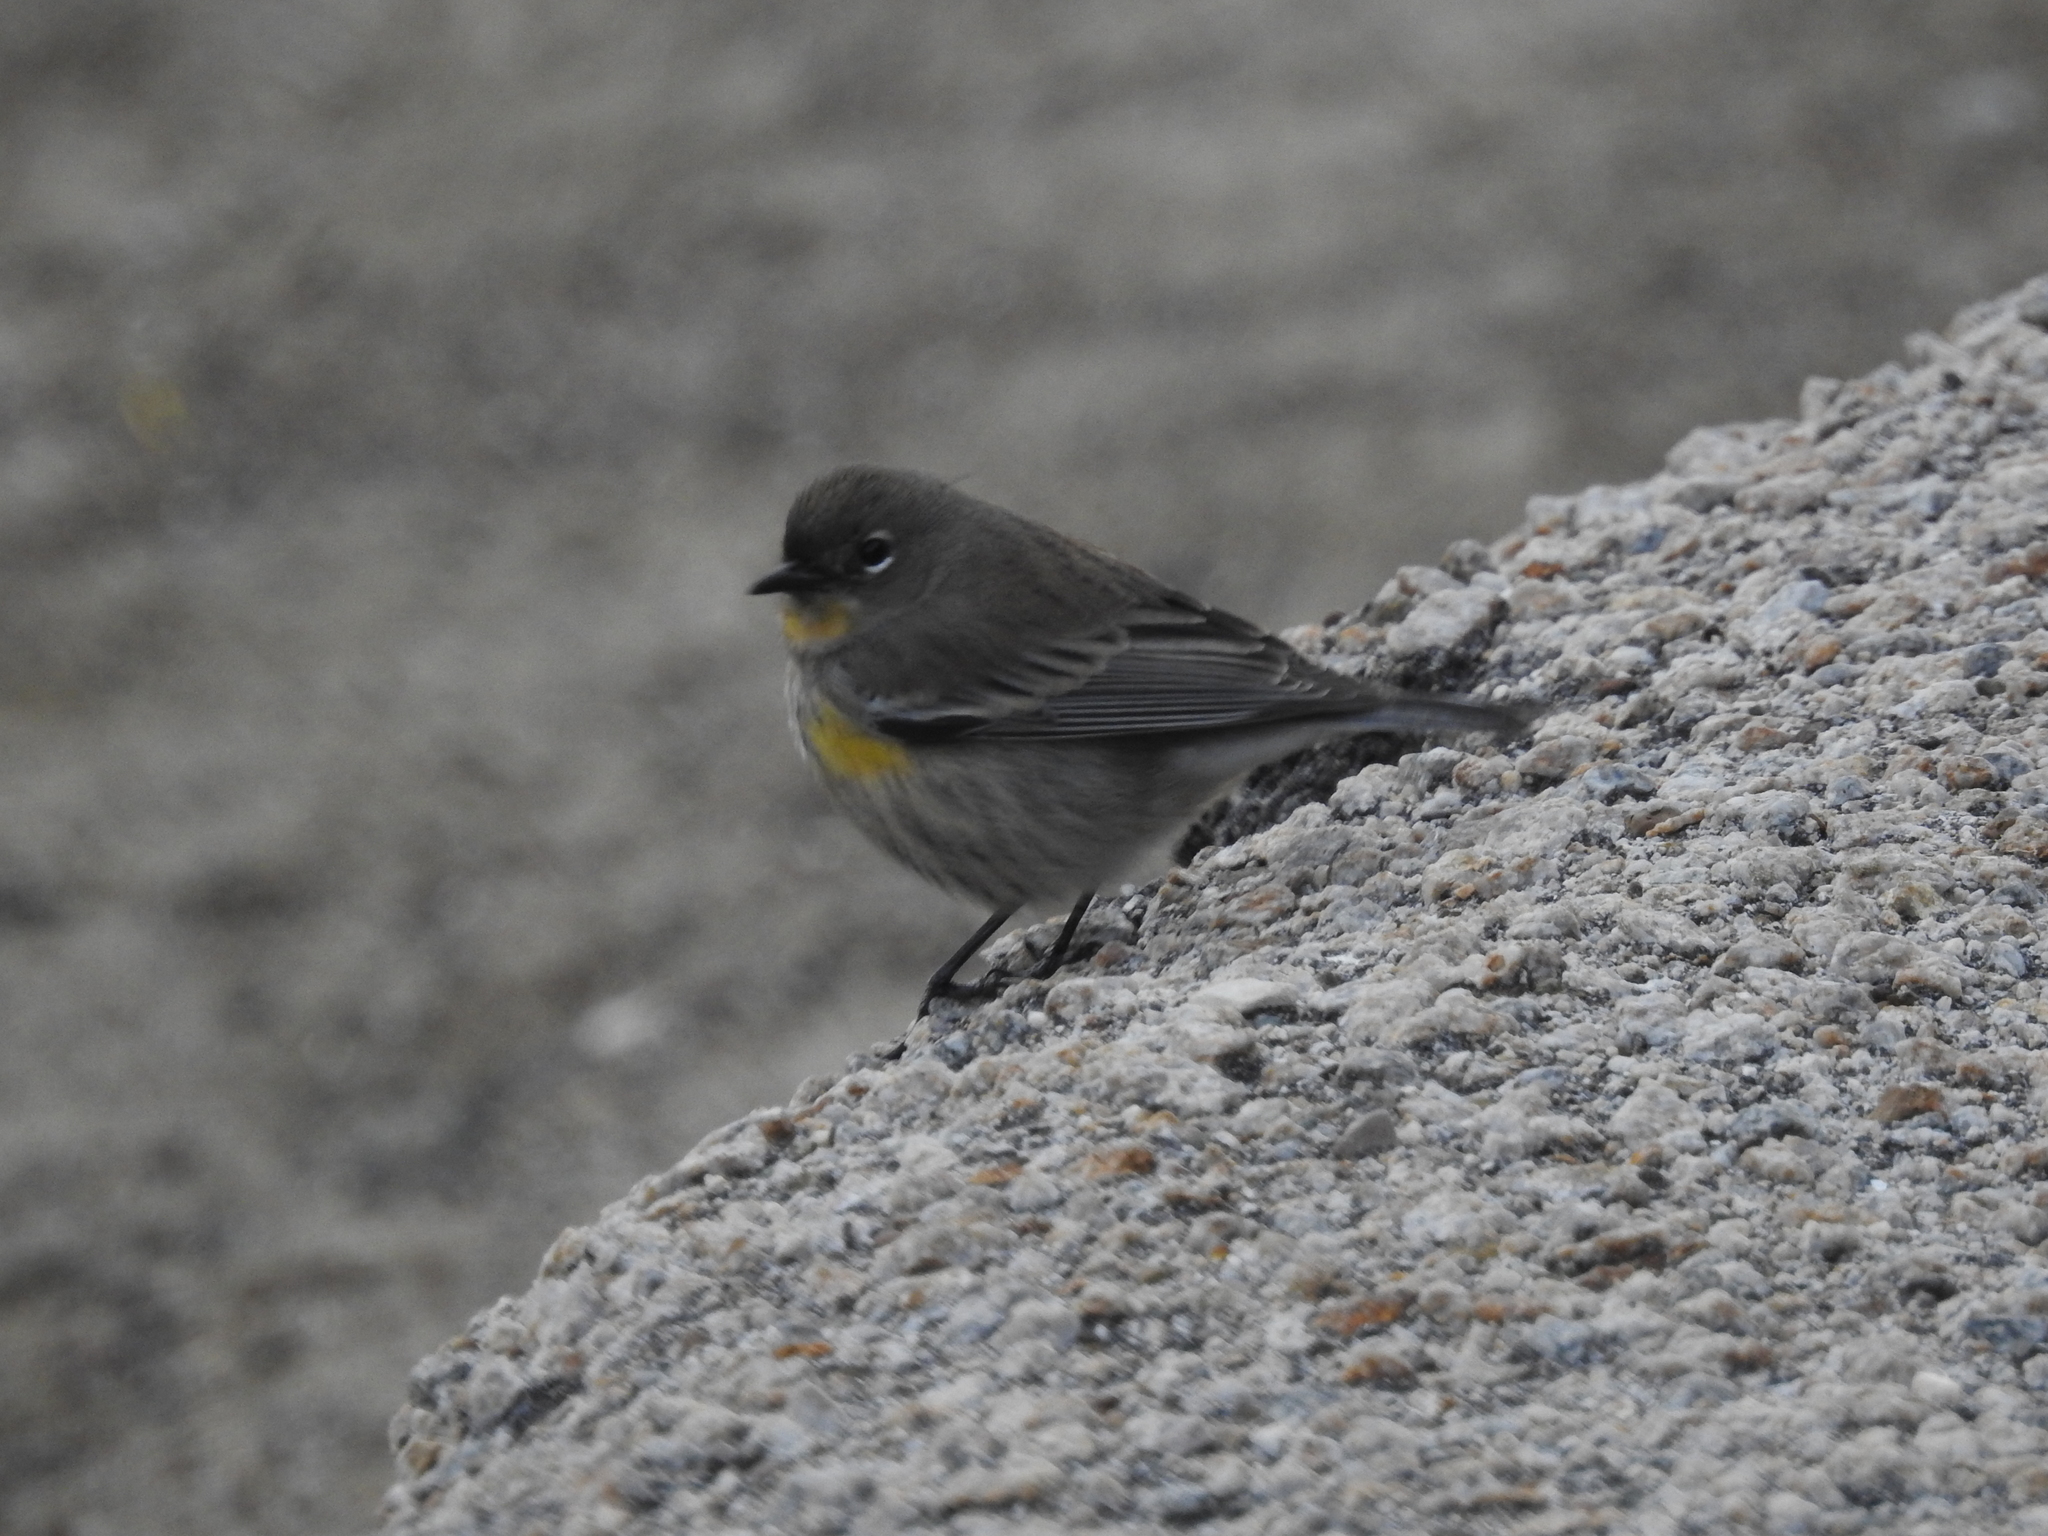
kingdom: Animalia
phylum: Chordata
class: Aves
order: Passeriformes
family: Parulidae
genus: Setophaga
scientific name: Setophaga coronata
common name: Myrtle warbler
